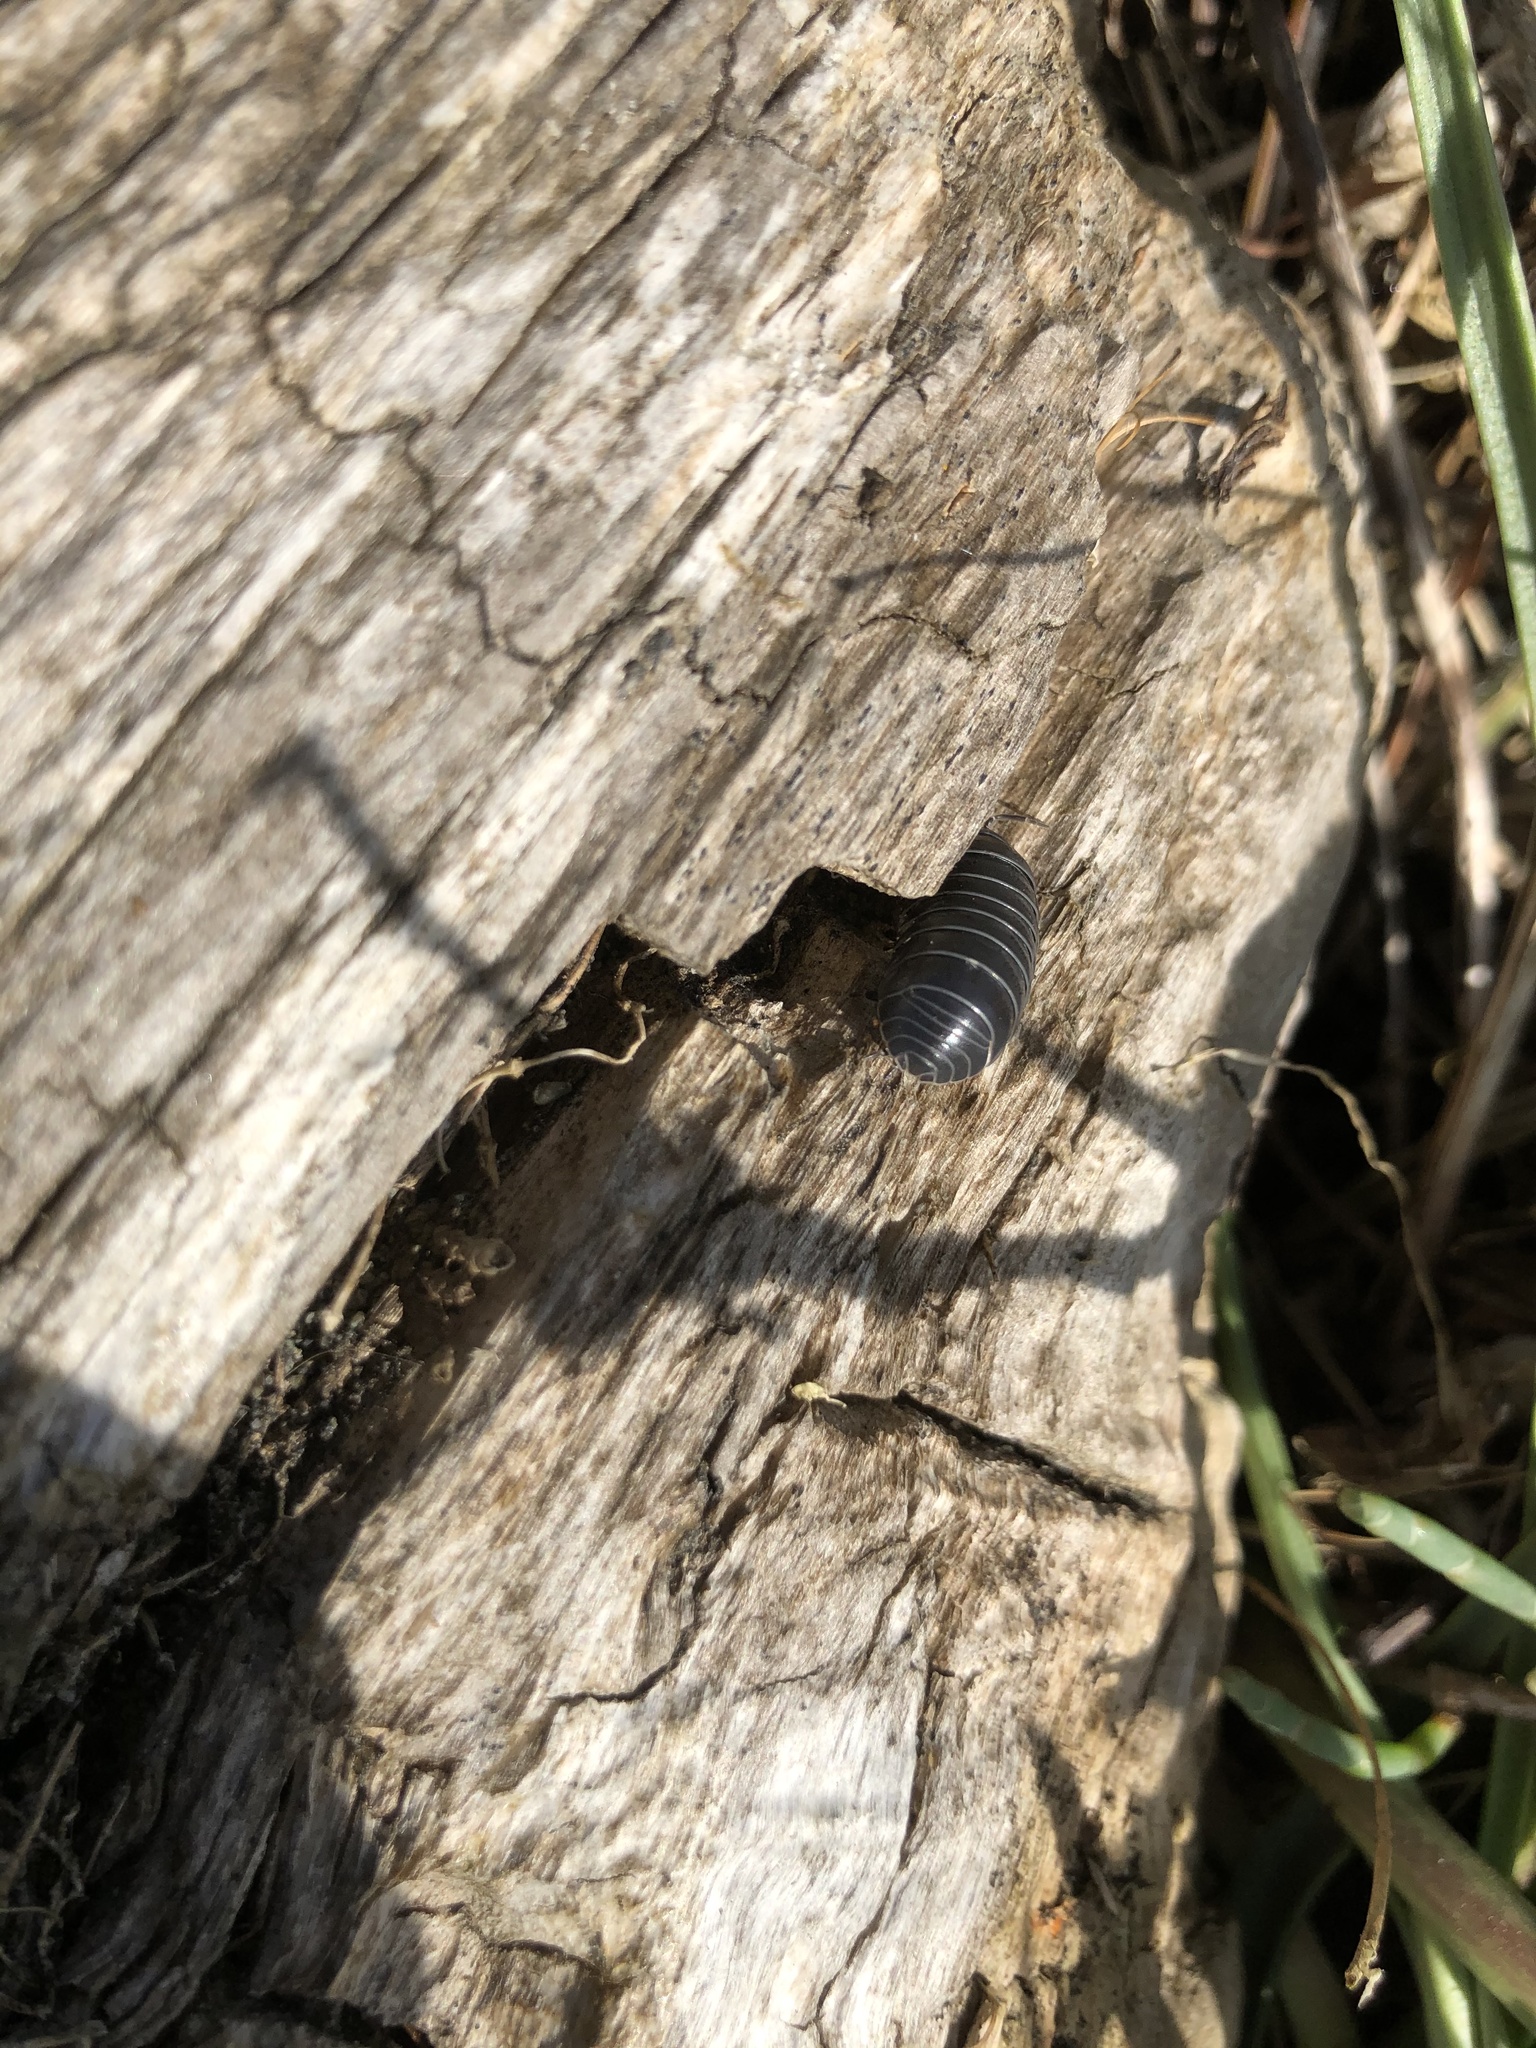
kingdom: Animalia
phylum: Arthropoda
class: Malacostraca
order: Isopoda
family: Armadillidiidae
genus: Armadillidium
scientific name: Armadillidium vulgare
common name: Common pill woodlouse
